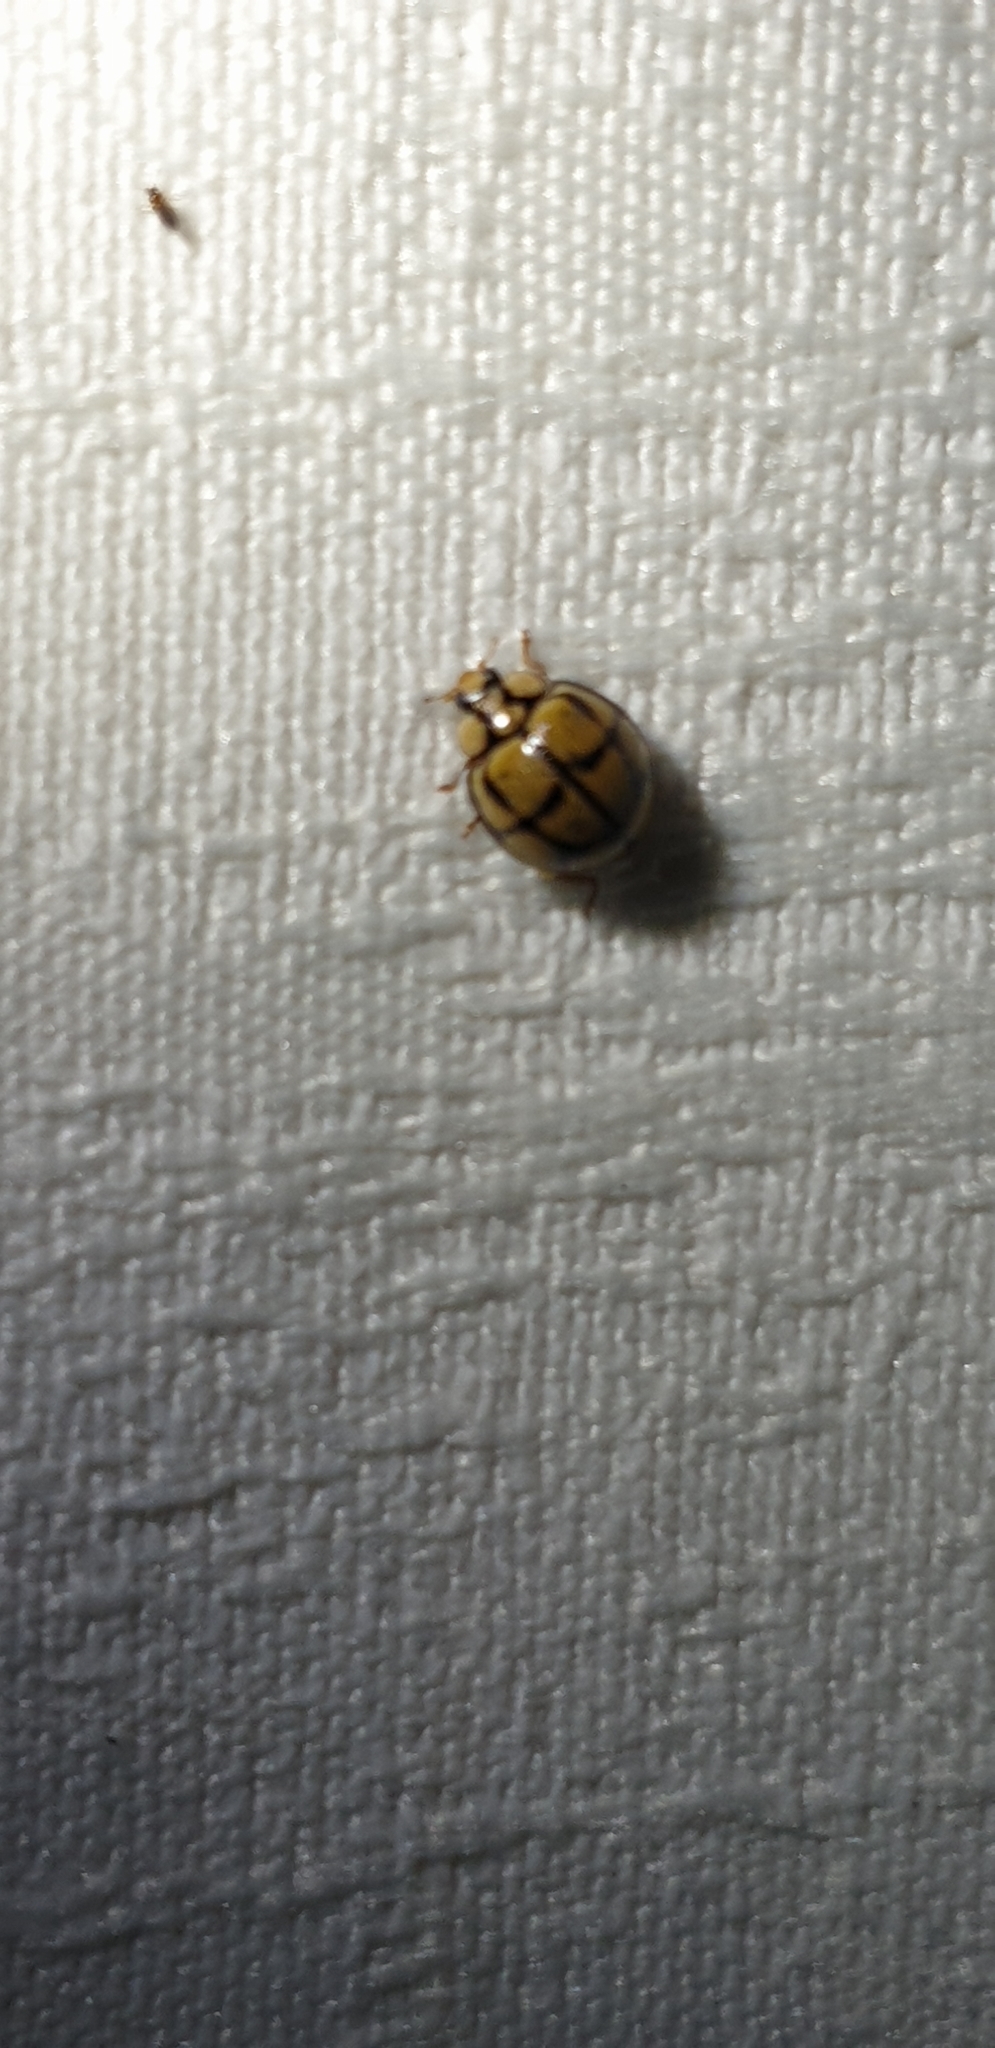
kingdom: Animalia
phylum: Arthropoda
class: Insecta
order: Coleoptera
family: Coccinellidae
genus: Harmonia
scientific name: Harmonia
